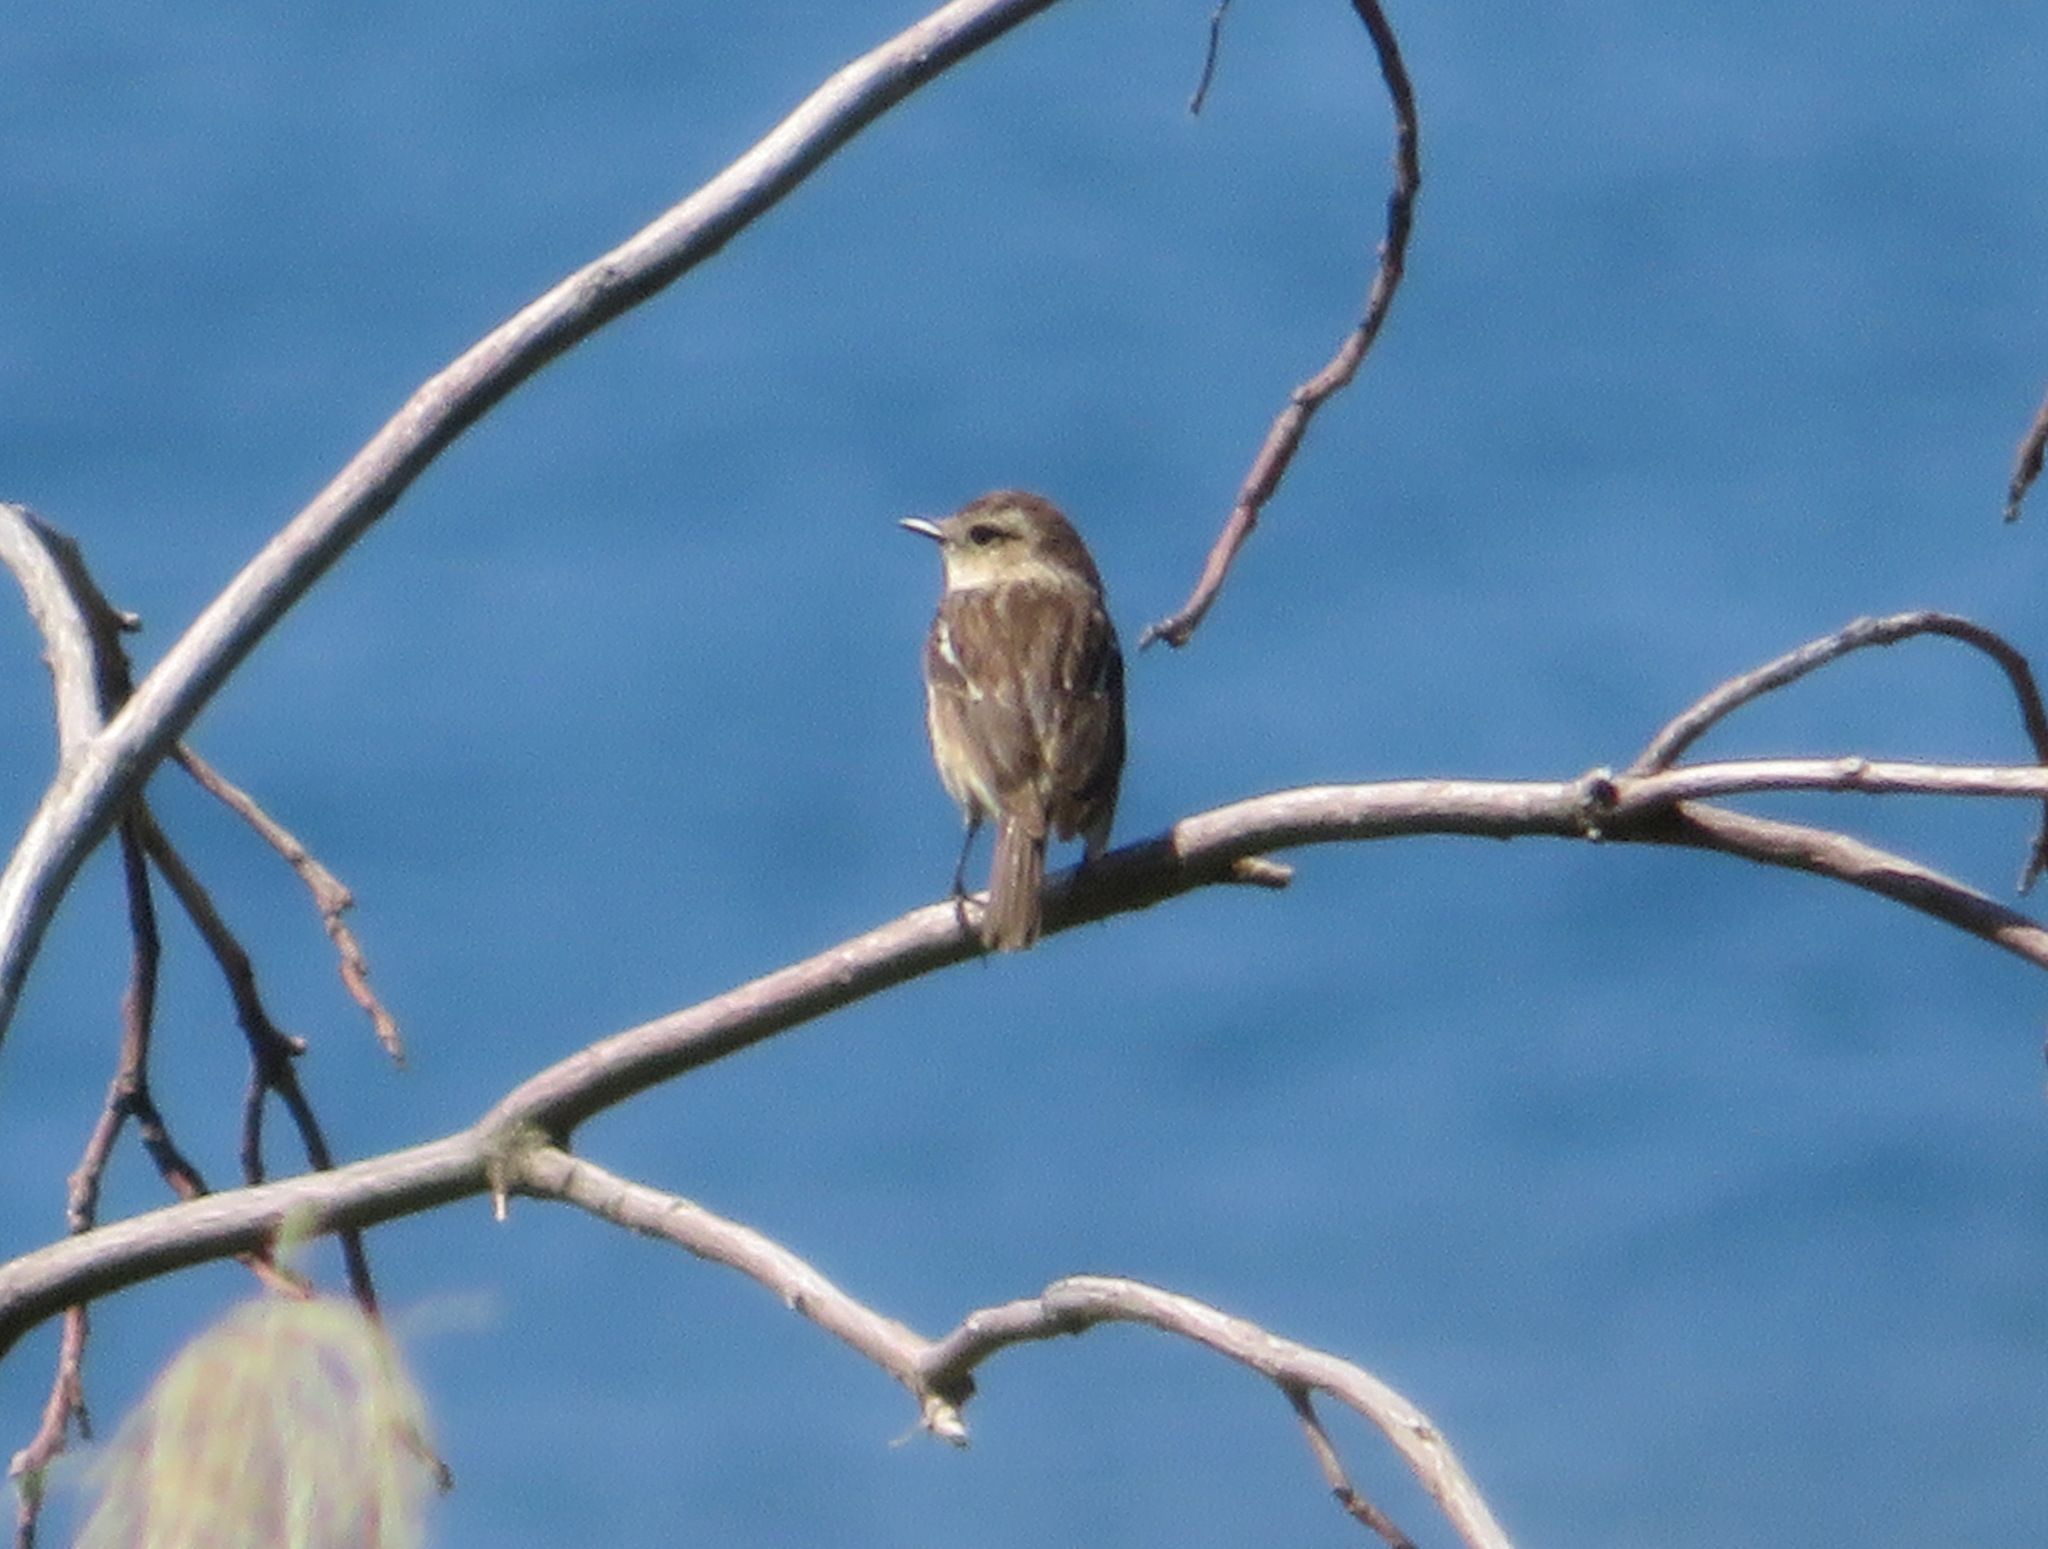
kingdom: Animalia
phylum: Chordata
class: Aves
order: Passeriformes
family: Muscicapidae
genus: Saxicola
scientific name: Saxicola stejnegeri
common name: Stejneger's stonechat
